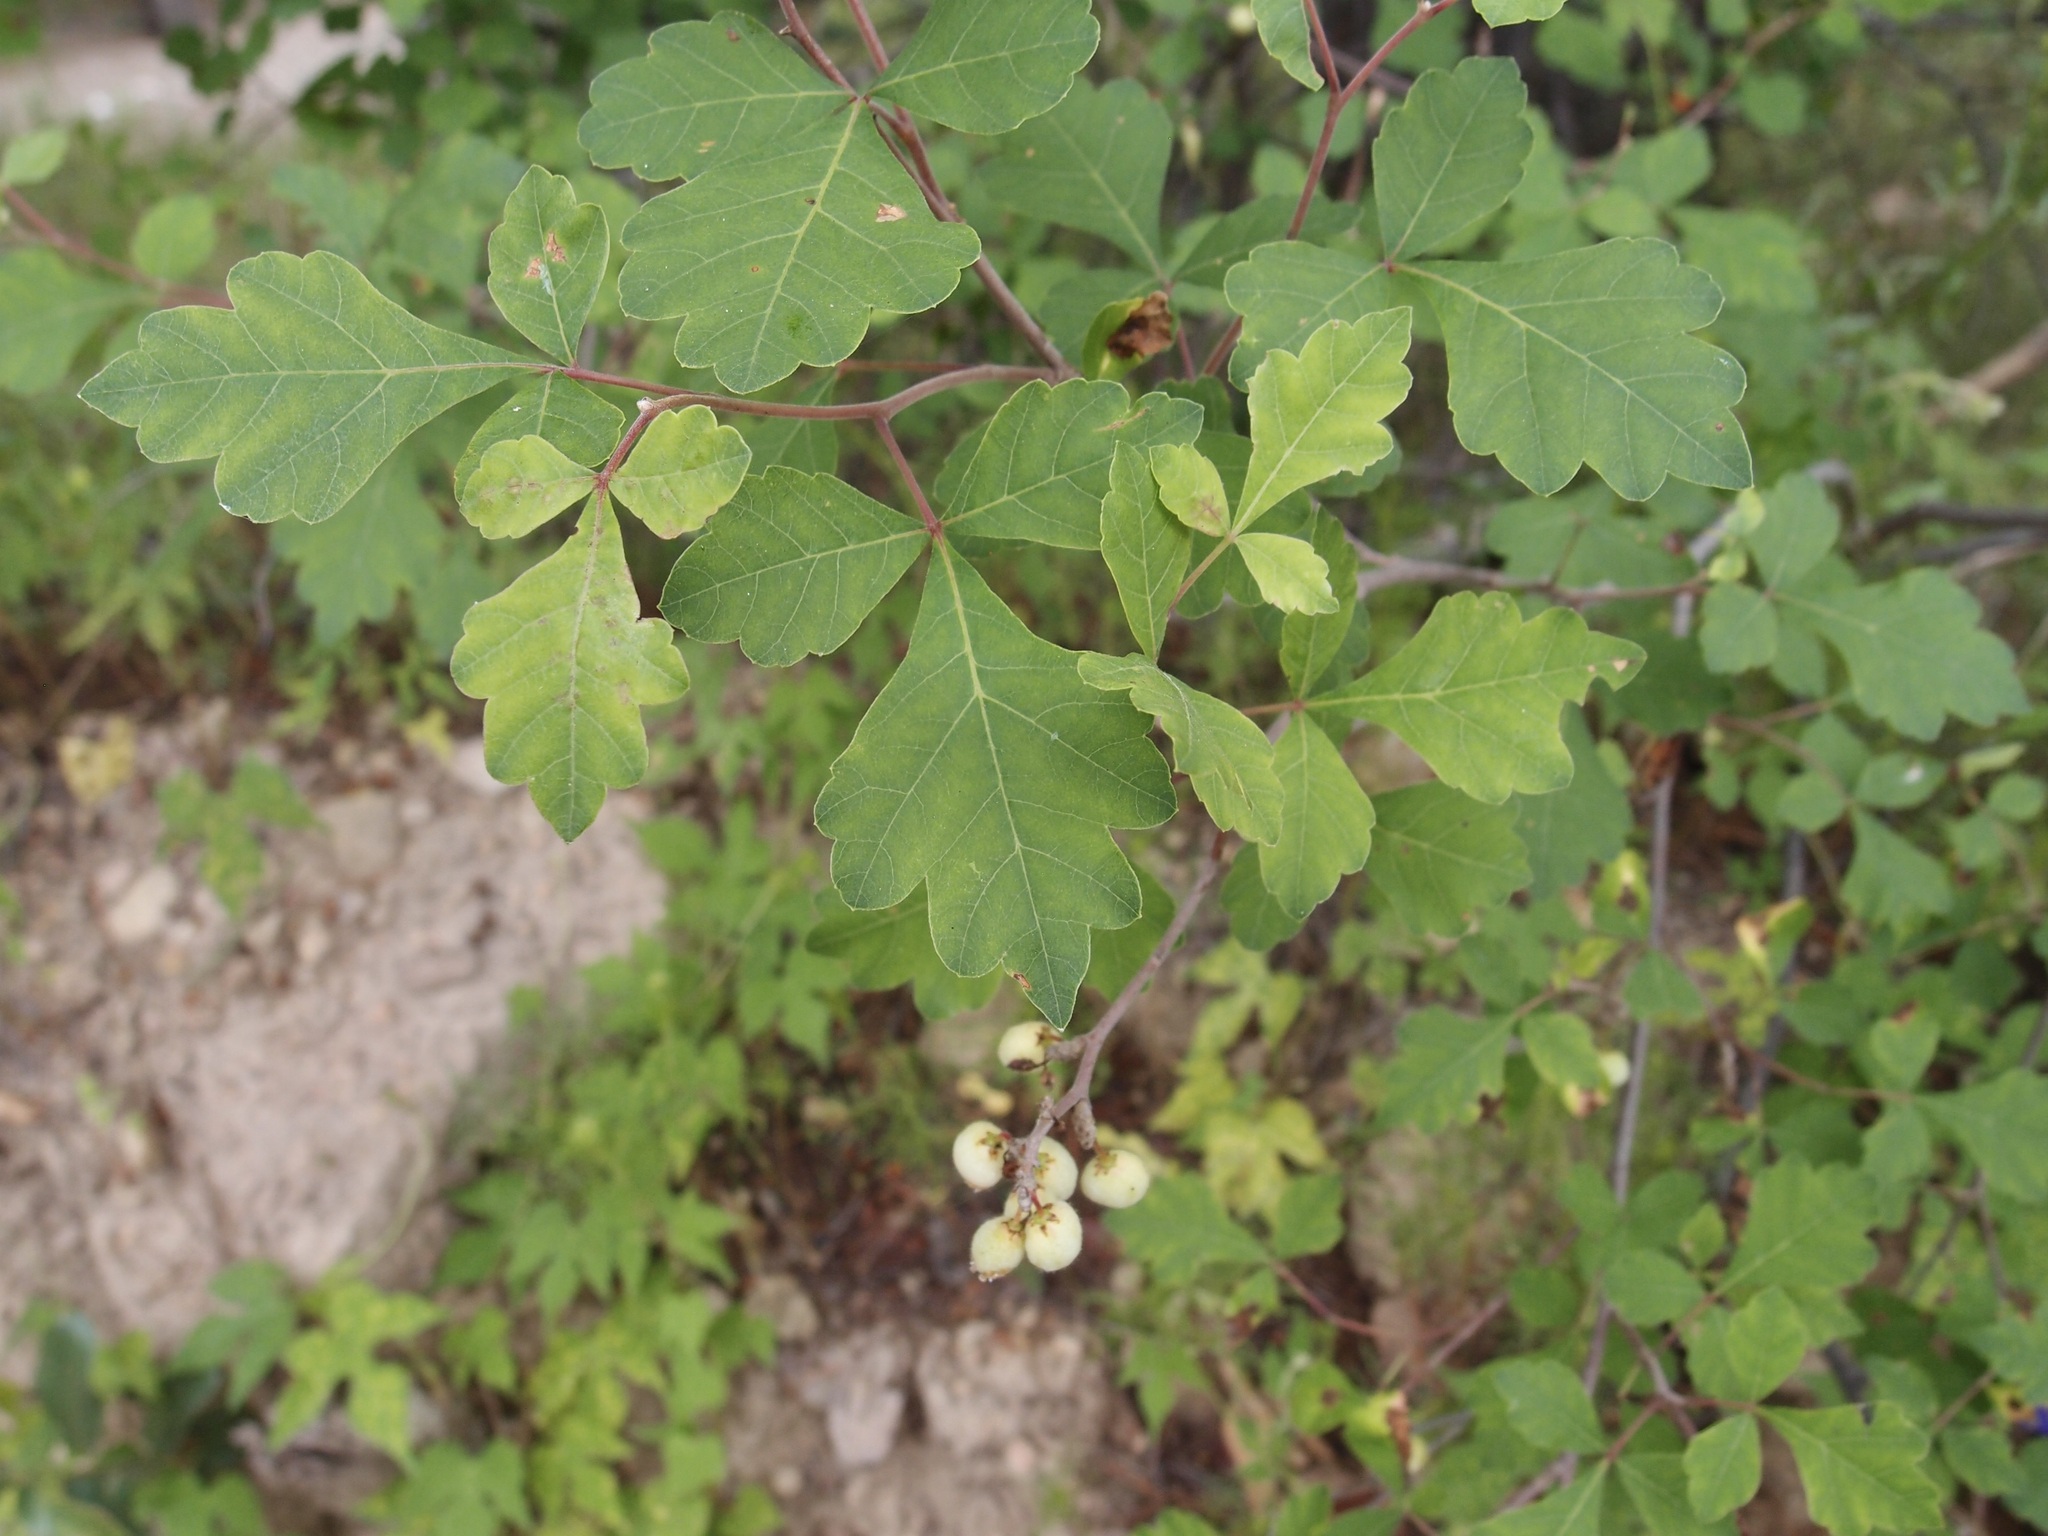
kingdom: Plantae
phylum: Tracheophyta
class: Magnoliopsida
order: Sapindales
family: Anacardiaceae
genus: Rhus
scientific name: Rhus aromatica
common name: Aromatic sumac
